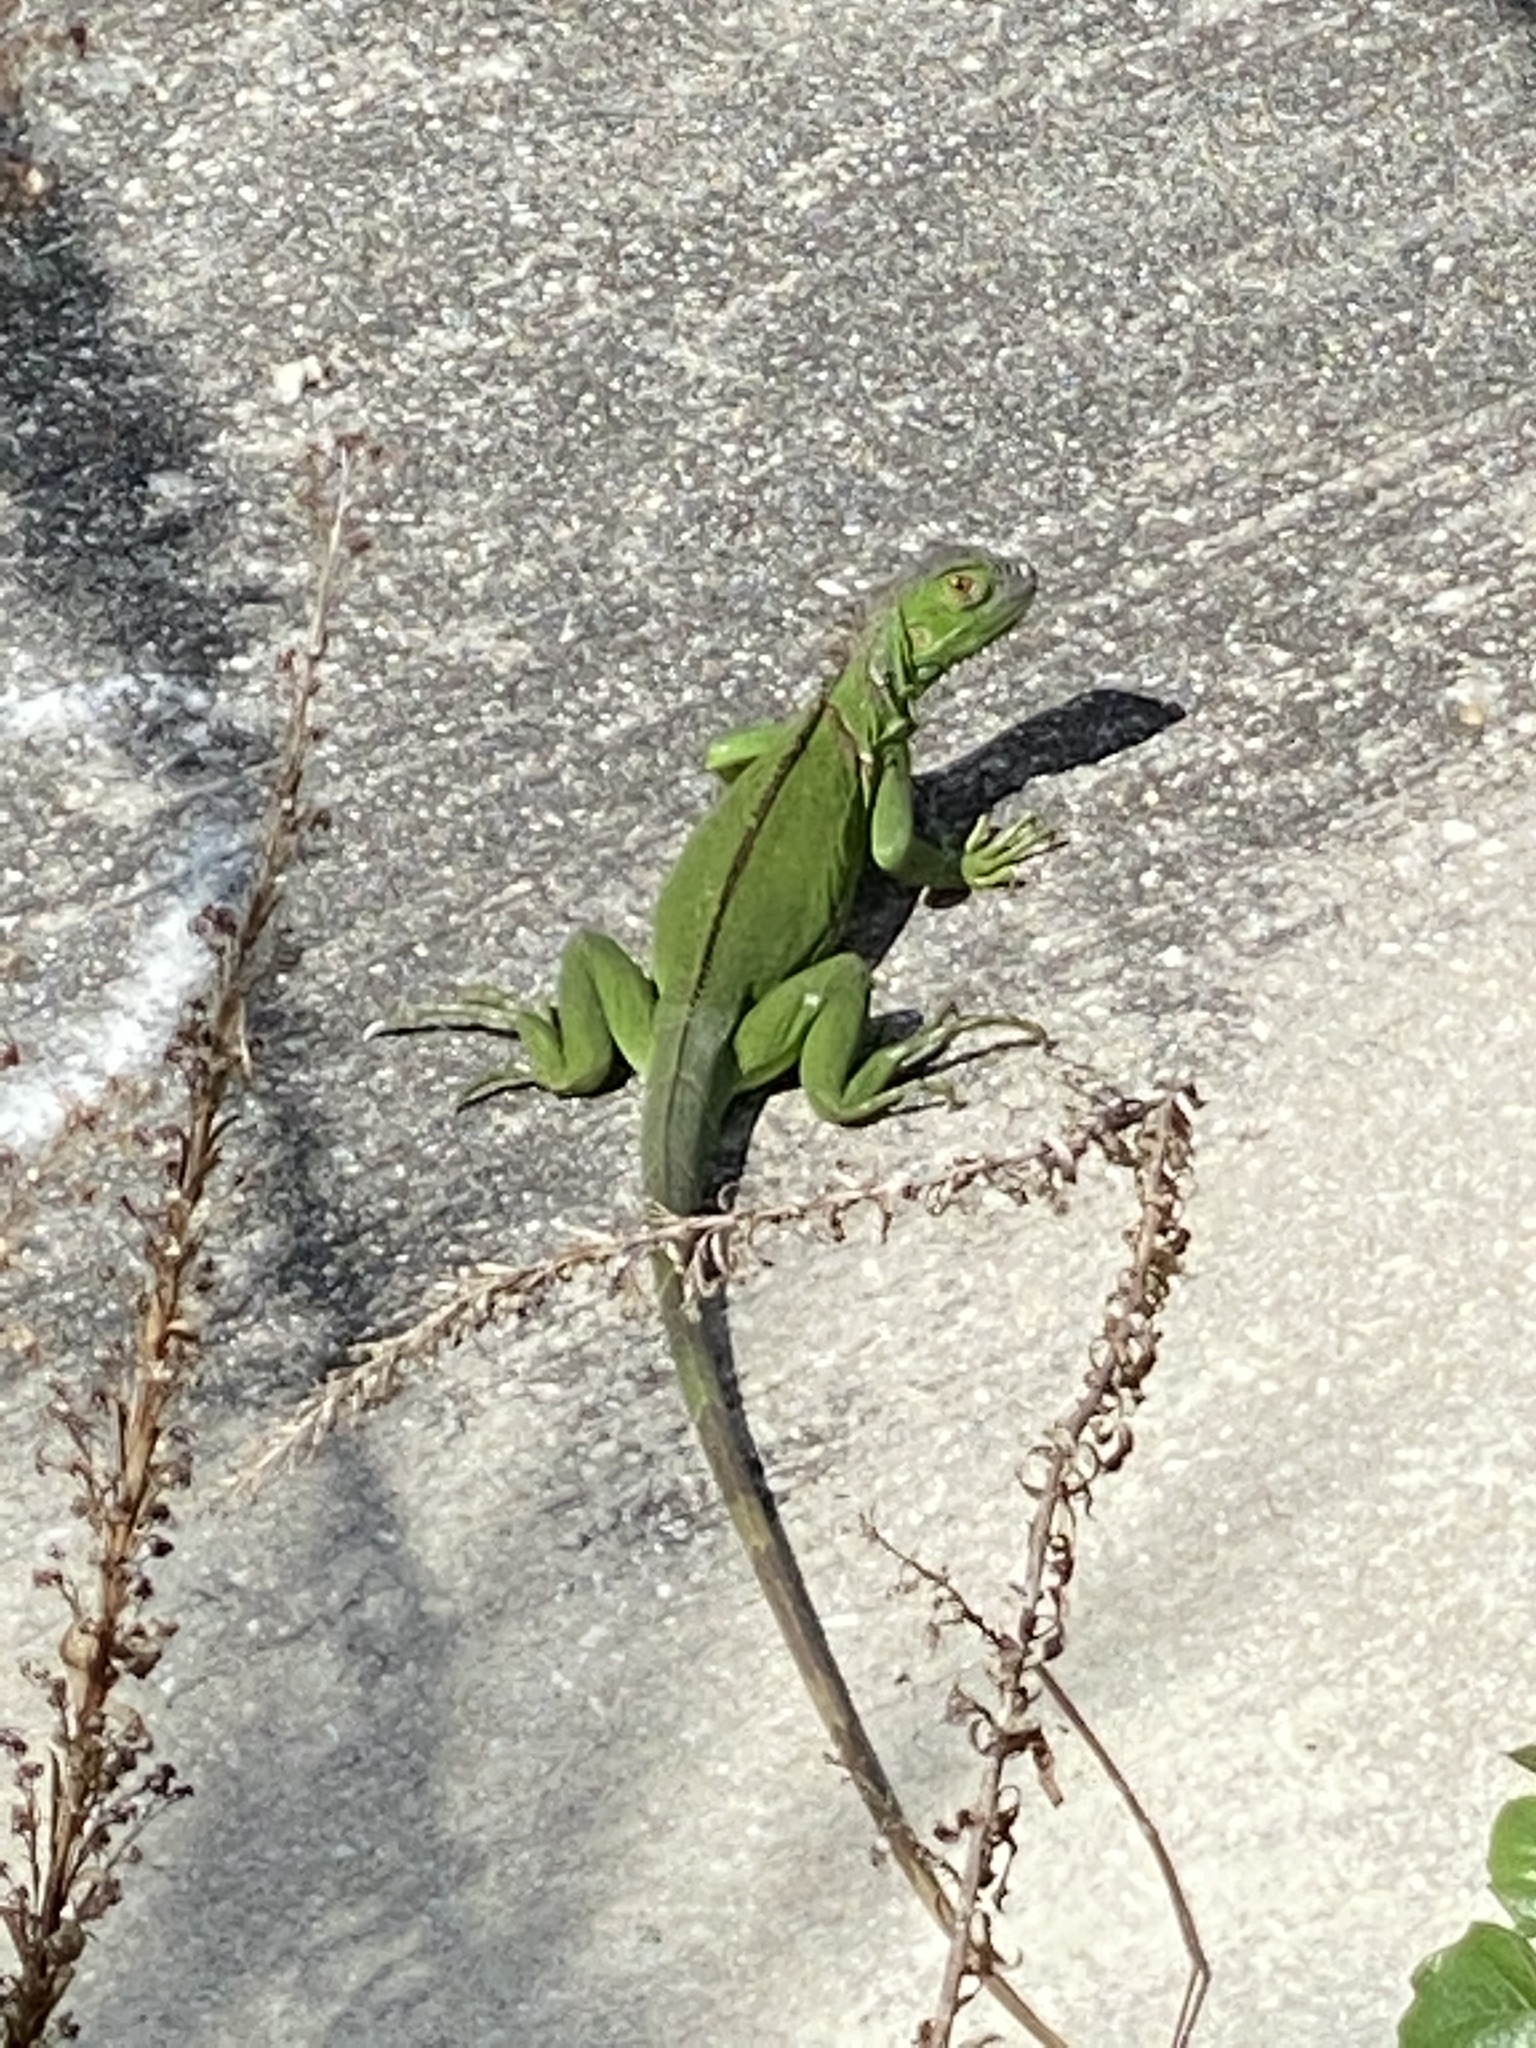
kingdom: Animalia
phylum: Chordata
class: Squamata
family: Iguanidae
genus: Iguana
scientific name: Iguana iguana
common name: Green iguana
